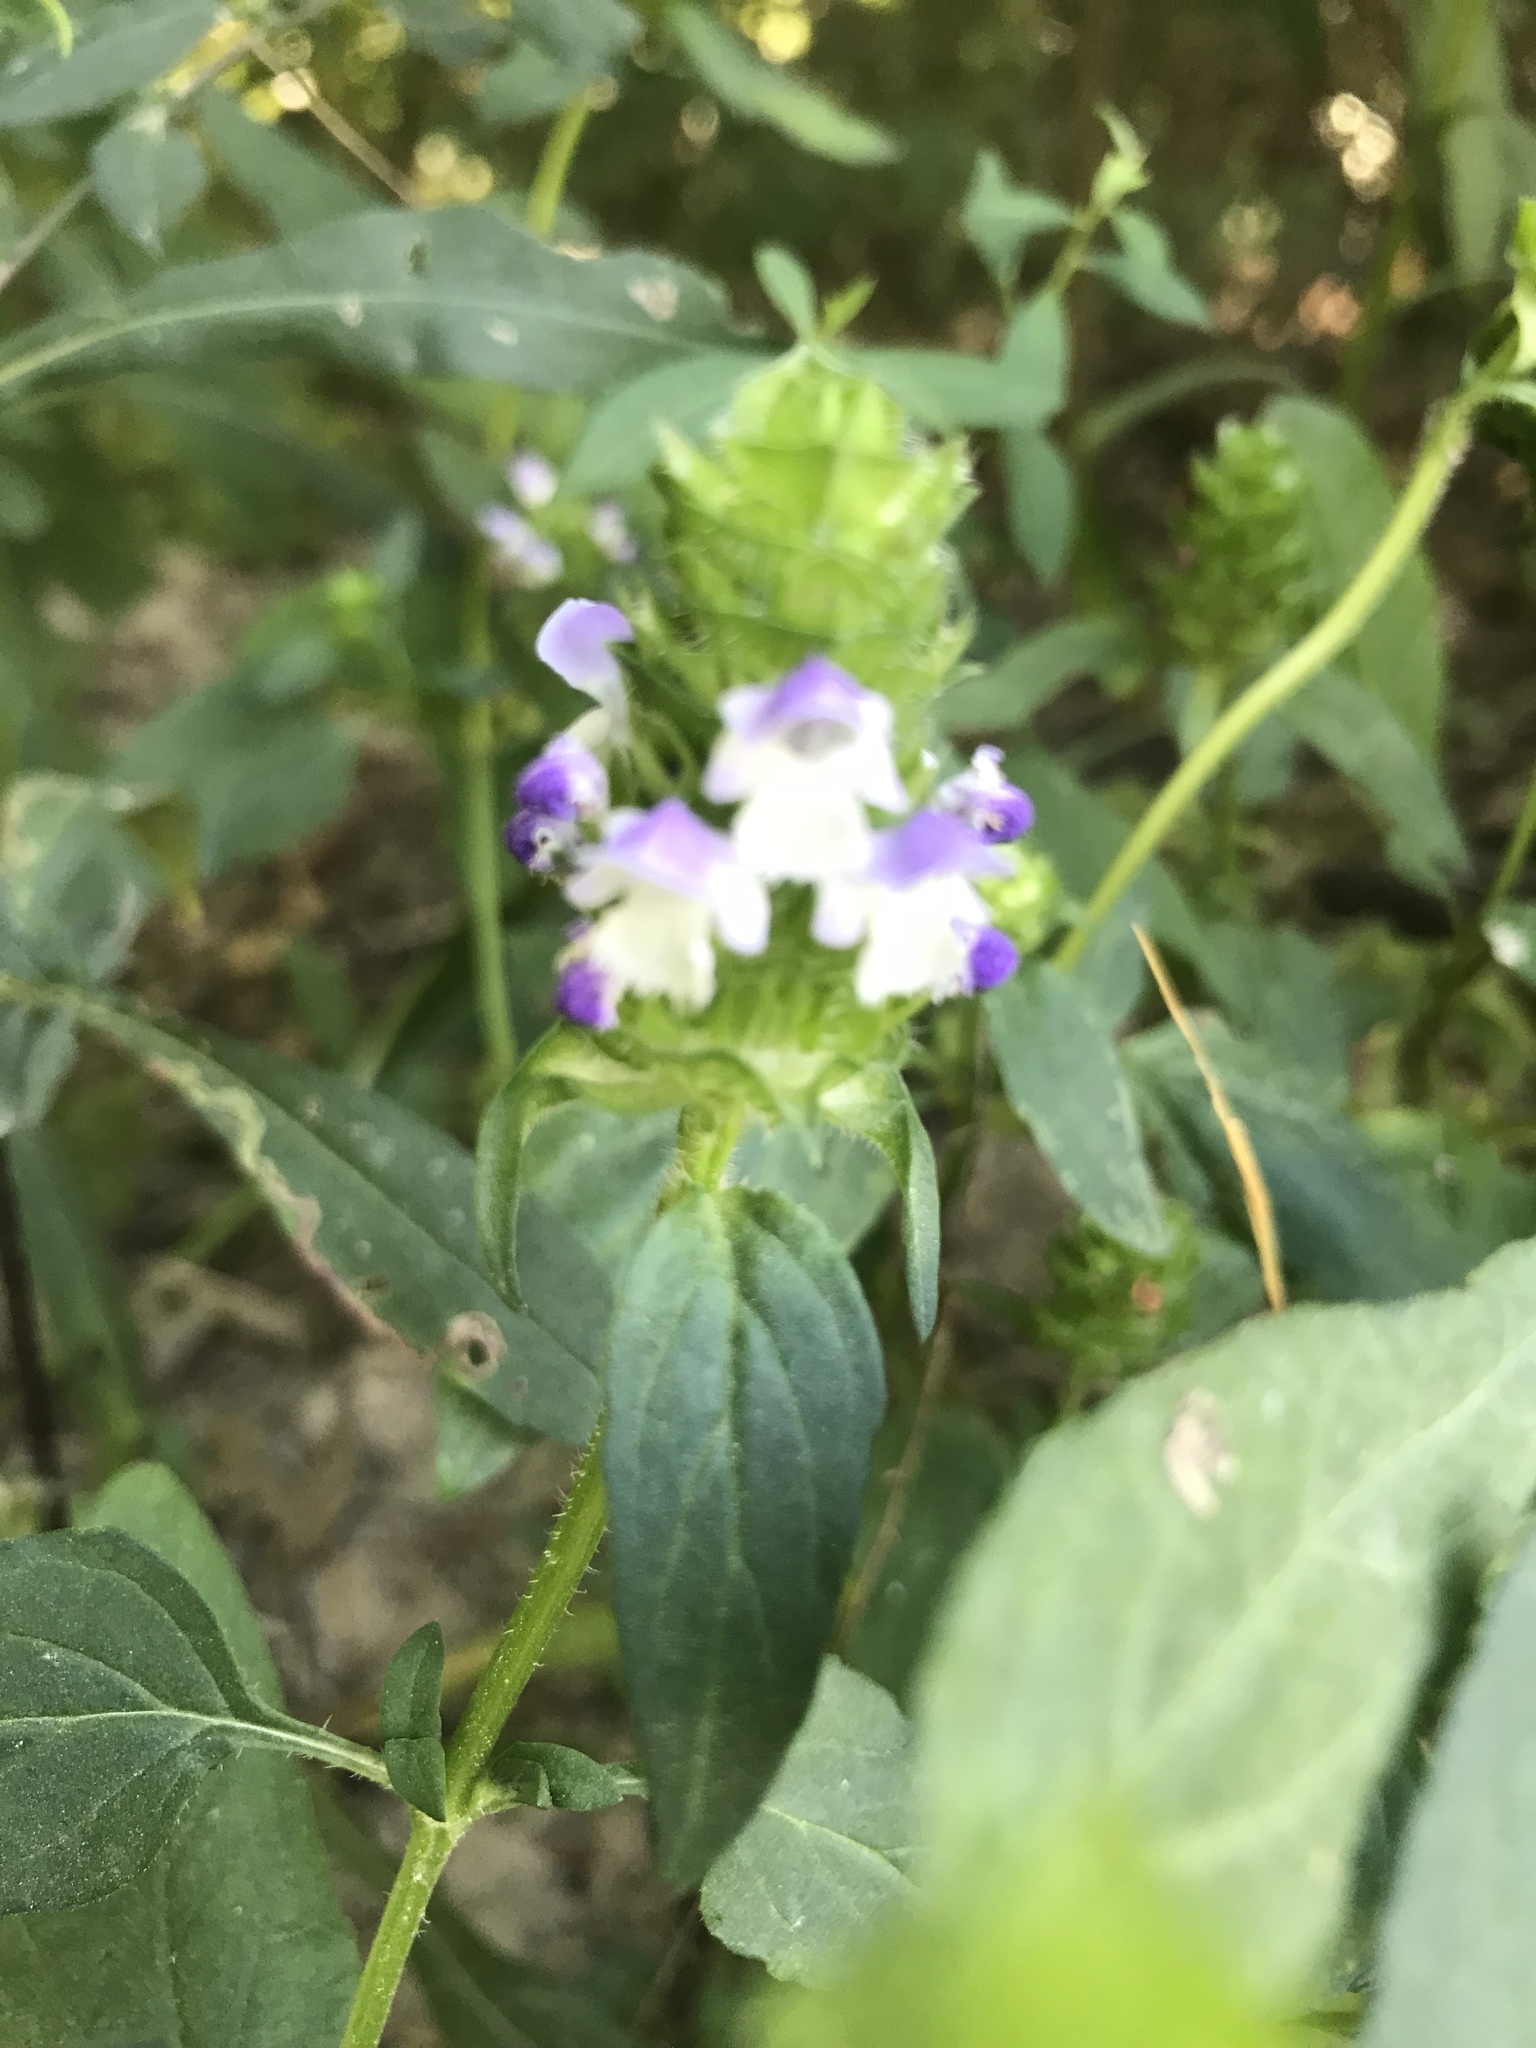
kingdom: Plantae
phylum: Tracheophyta
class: Magnoliopsida
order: Lamiales
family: Lamiaceae
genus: Prunella
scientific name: Prunella vulgaris
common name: Heal-all
